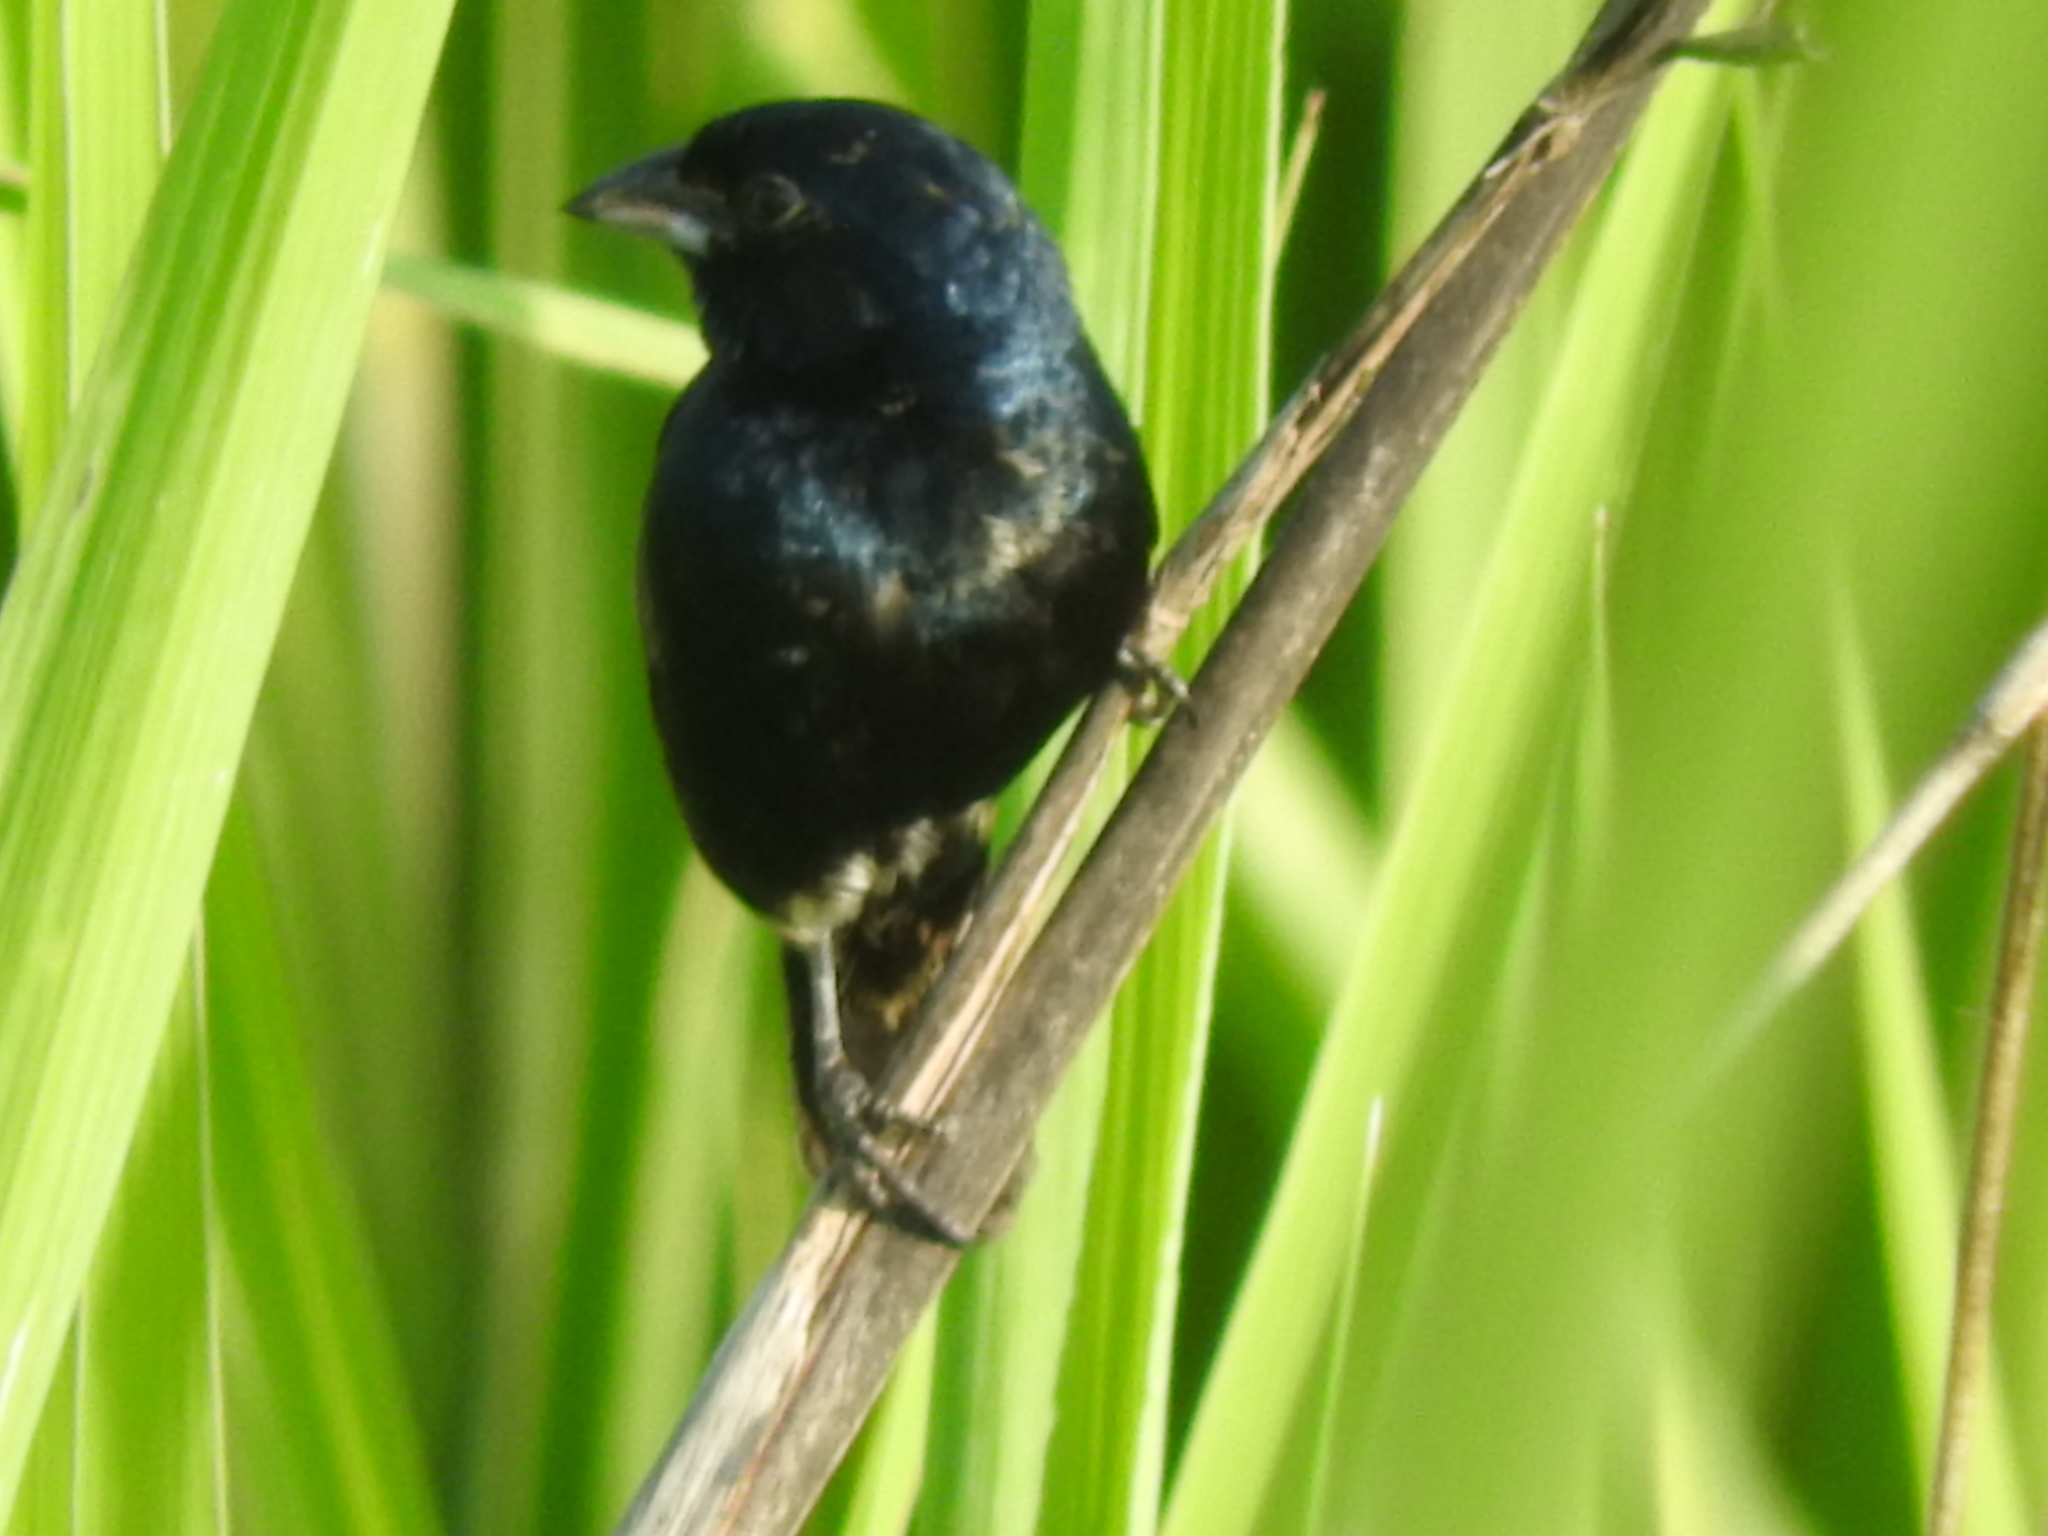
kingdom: Animalia
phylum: Chordata
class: Aves
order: Passeriformes
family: Thraupidae
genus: Volatinia
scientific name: Volatinia jacarina
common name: Blue-black grassquit
